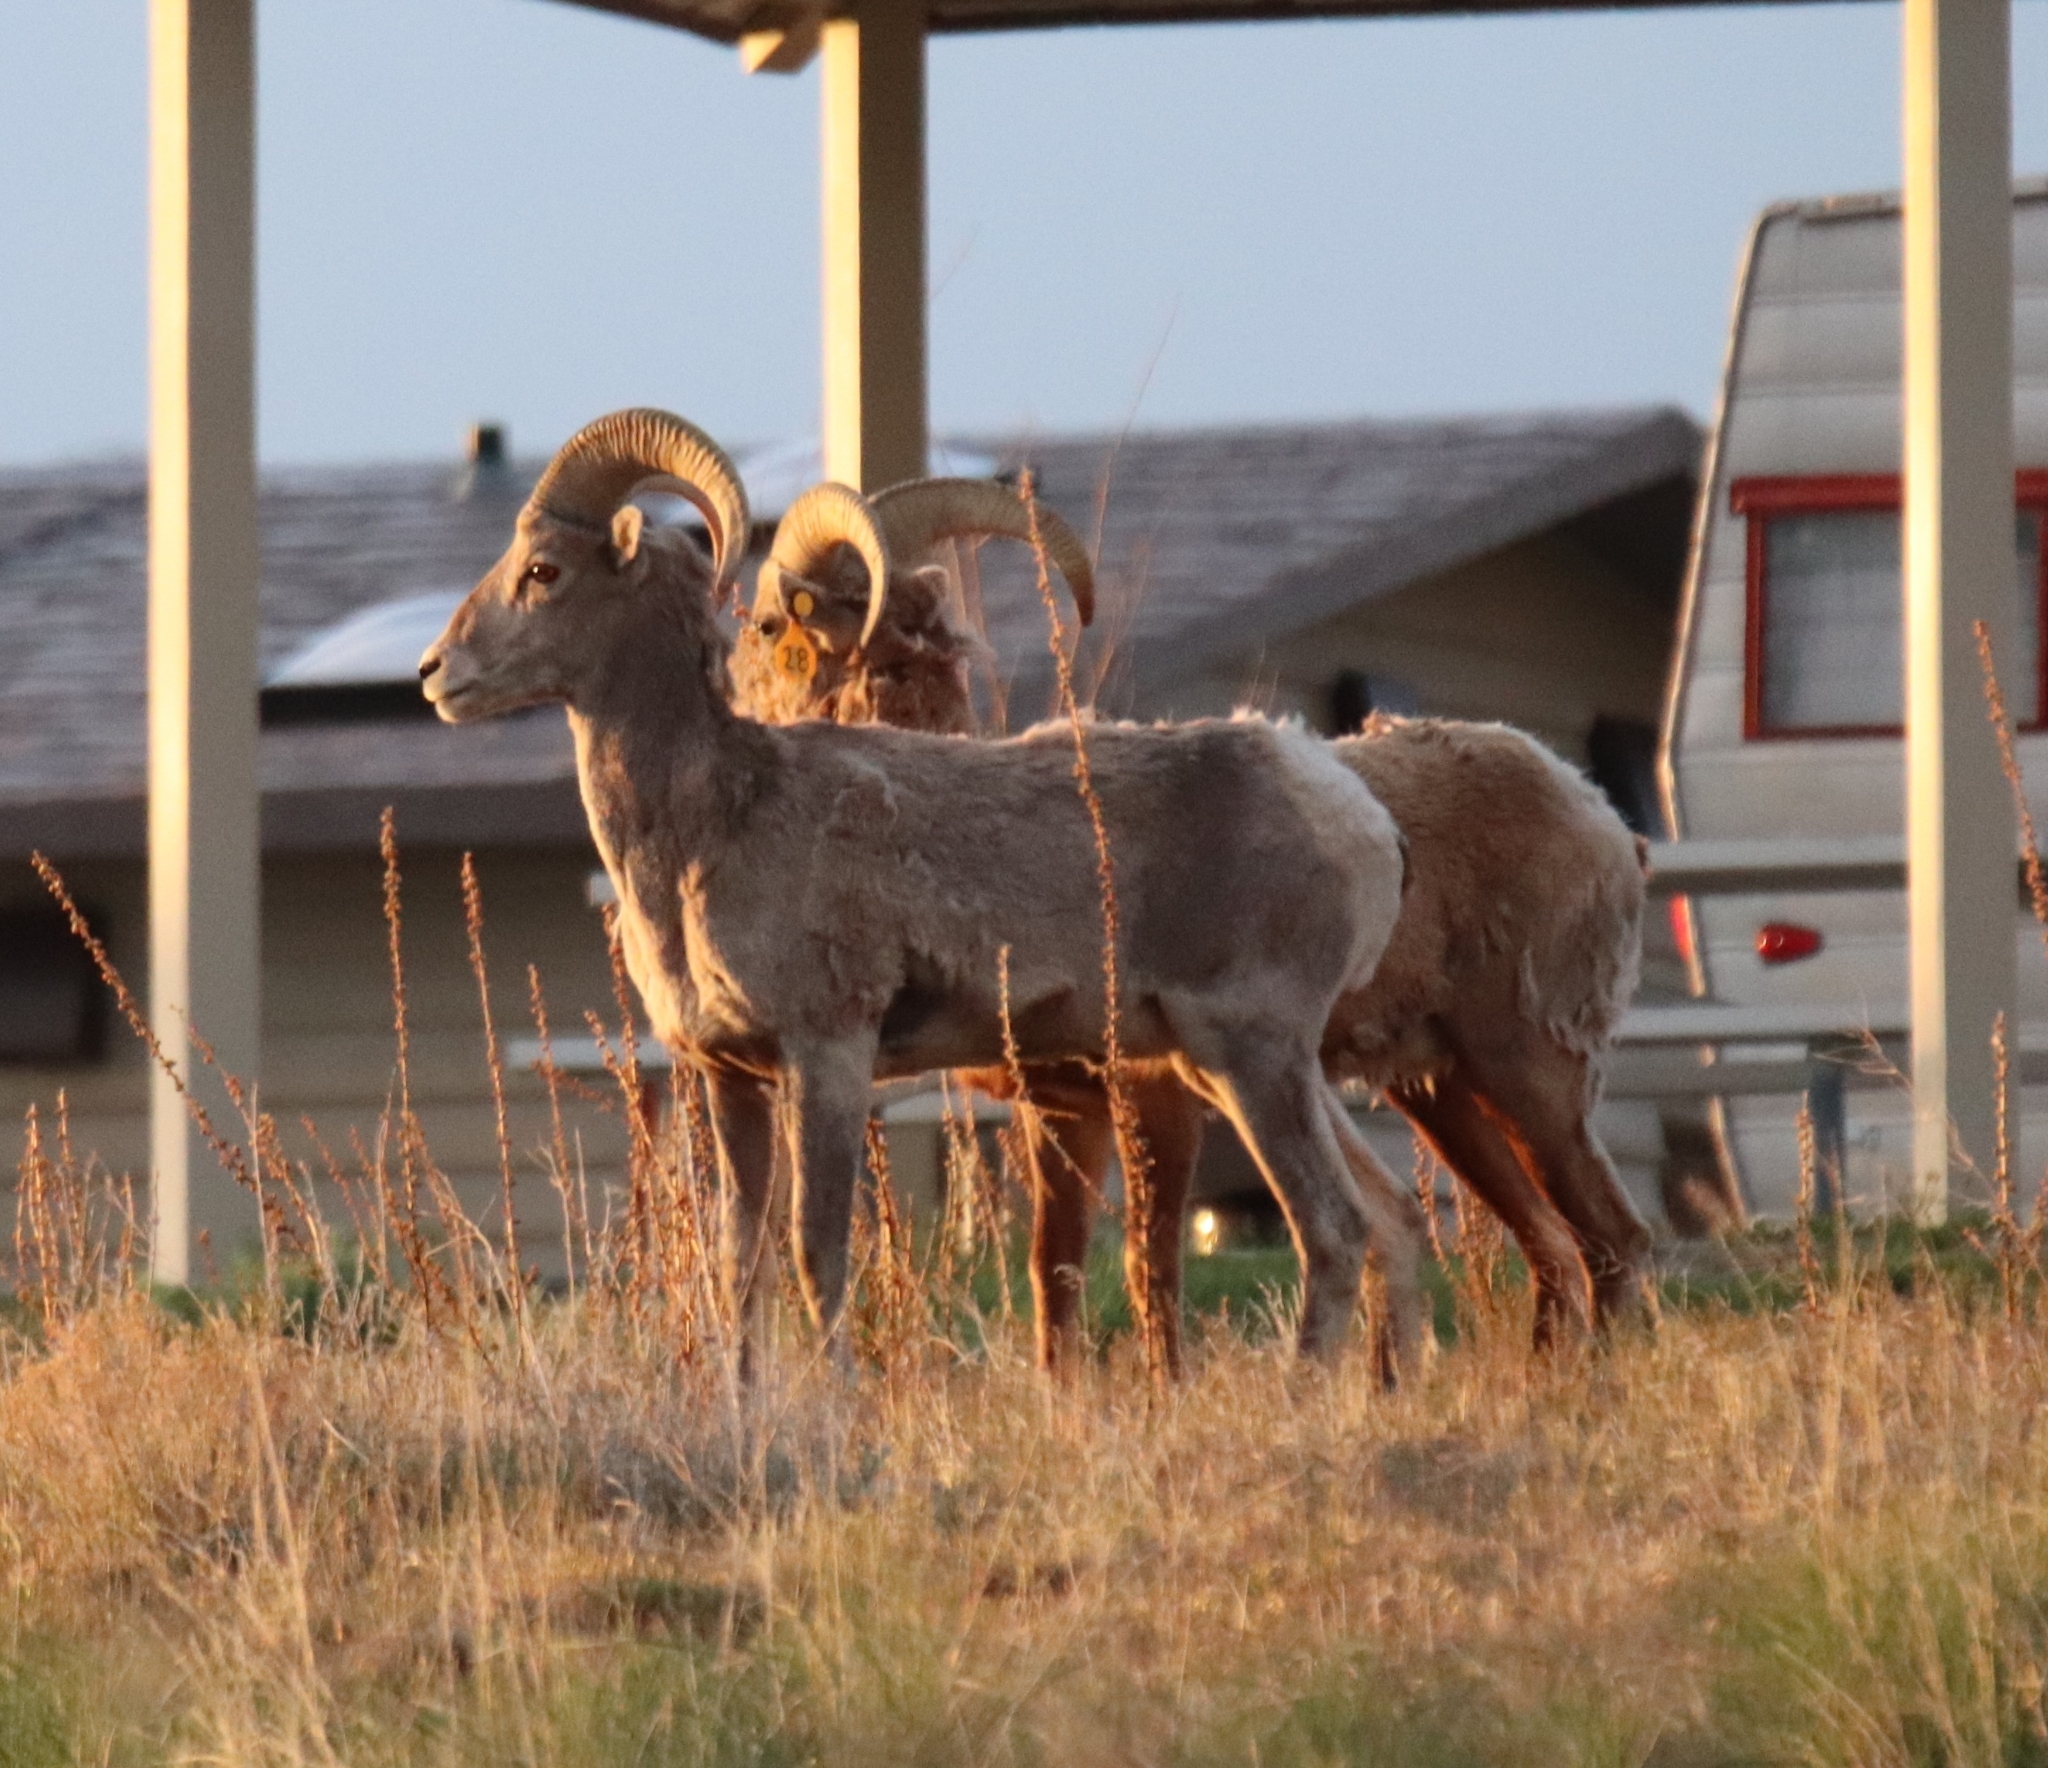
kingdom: Animalia
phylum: Chordata
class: Mammalia
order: Artiodactyla
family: Bovidae
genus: Ovis
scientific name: Ovis canadensis
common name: Bighorn sheep
